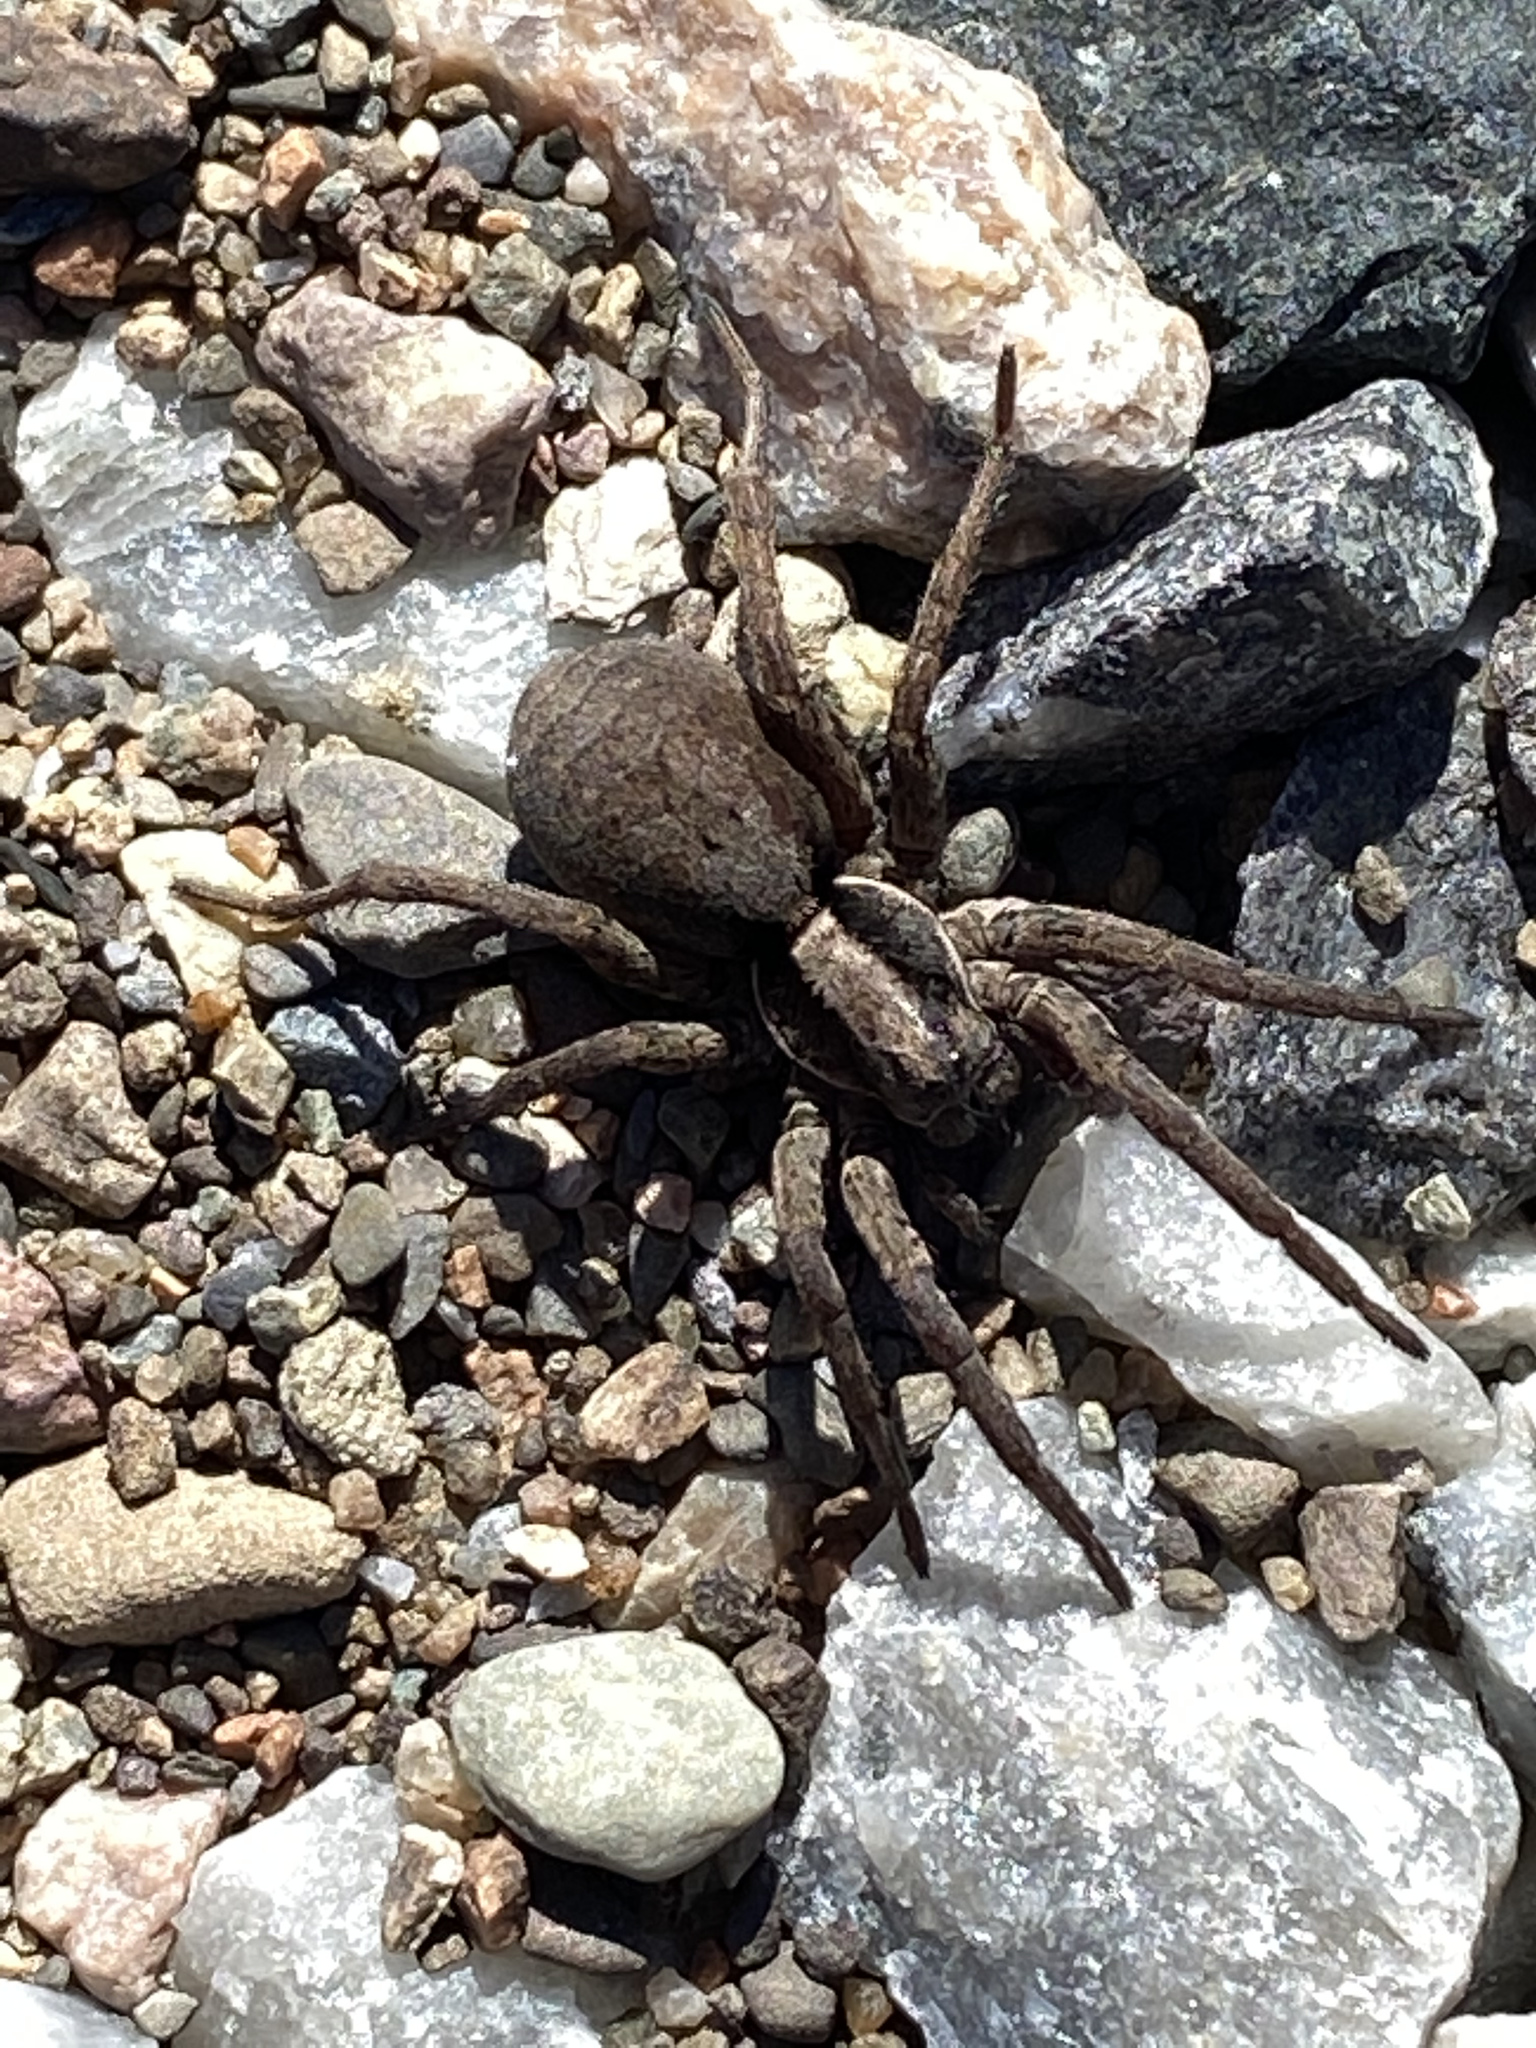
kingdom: Animalia
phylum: Arthropoda
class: Arachnida
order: Araneae
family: Lycosidae
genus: Hogna
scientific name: Hogna frondicola
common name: Forest wolf spider
